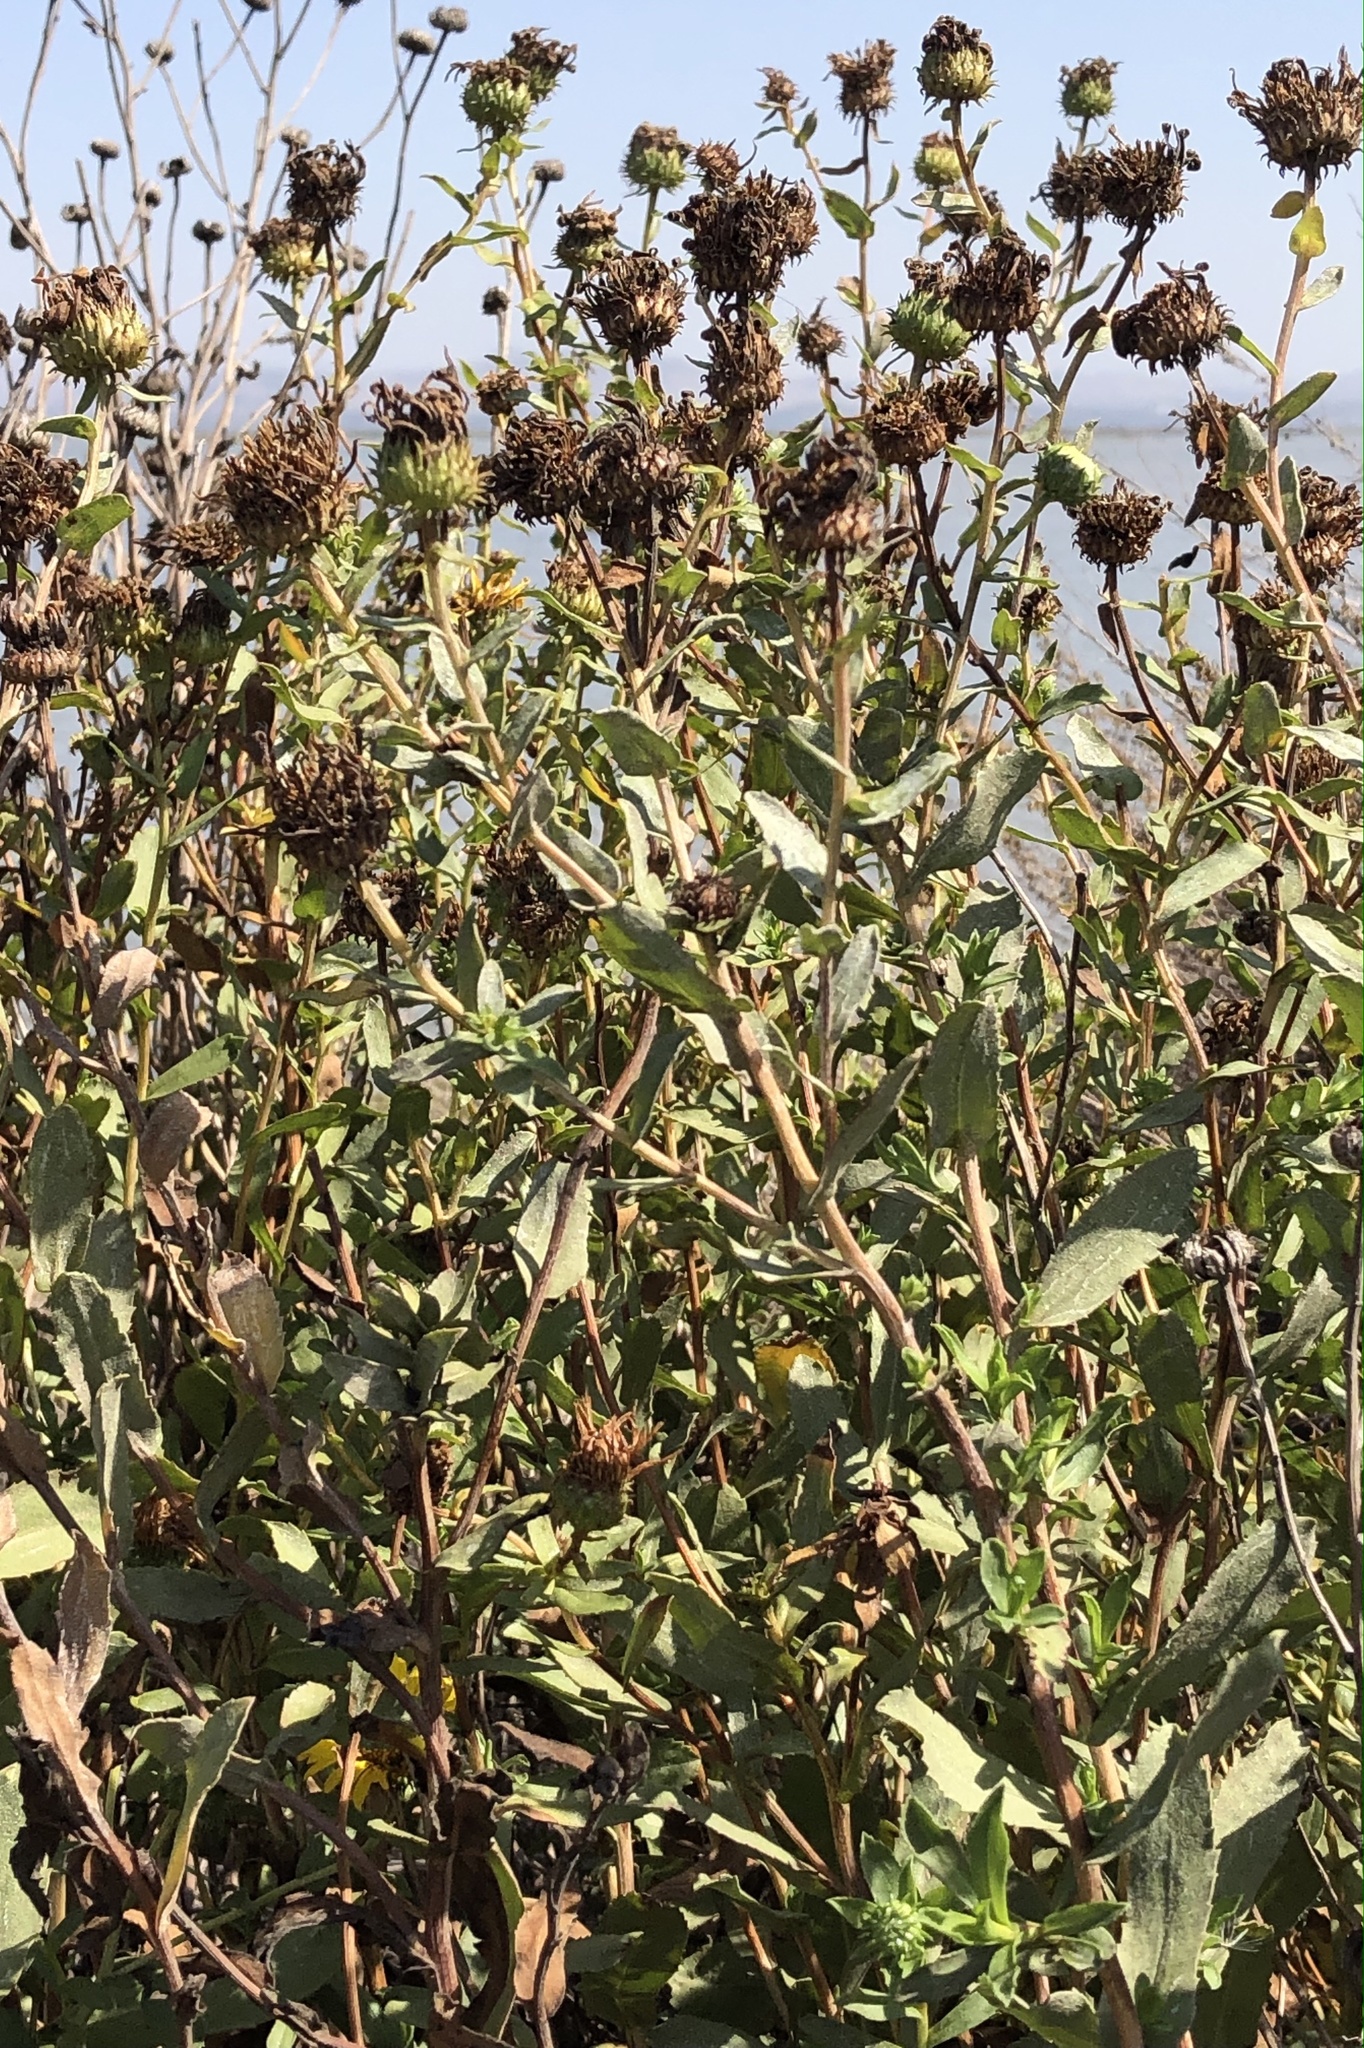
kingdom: Plantae
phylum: Tracheophyta
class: Magnoliopsida
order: Asterales
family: Asteraceae
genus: Grindelia
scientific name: Grindelia hirsutula
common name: Hairy gumweed
